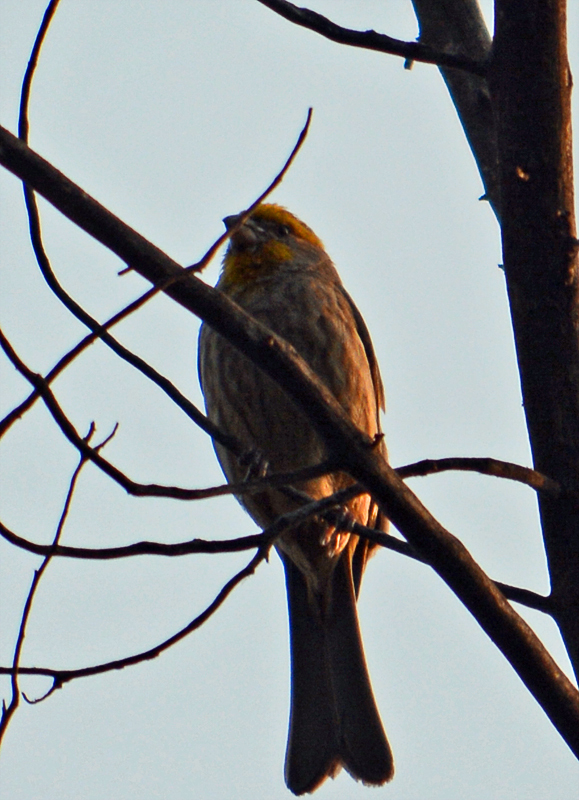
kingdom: Animalia
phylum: Chordata
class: Aves
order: Passeriformes
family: Fringillidae
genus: Haemorhous
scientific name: Haemorhous mexicanus
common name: House finch
